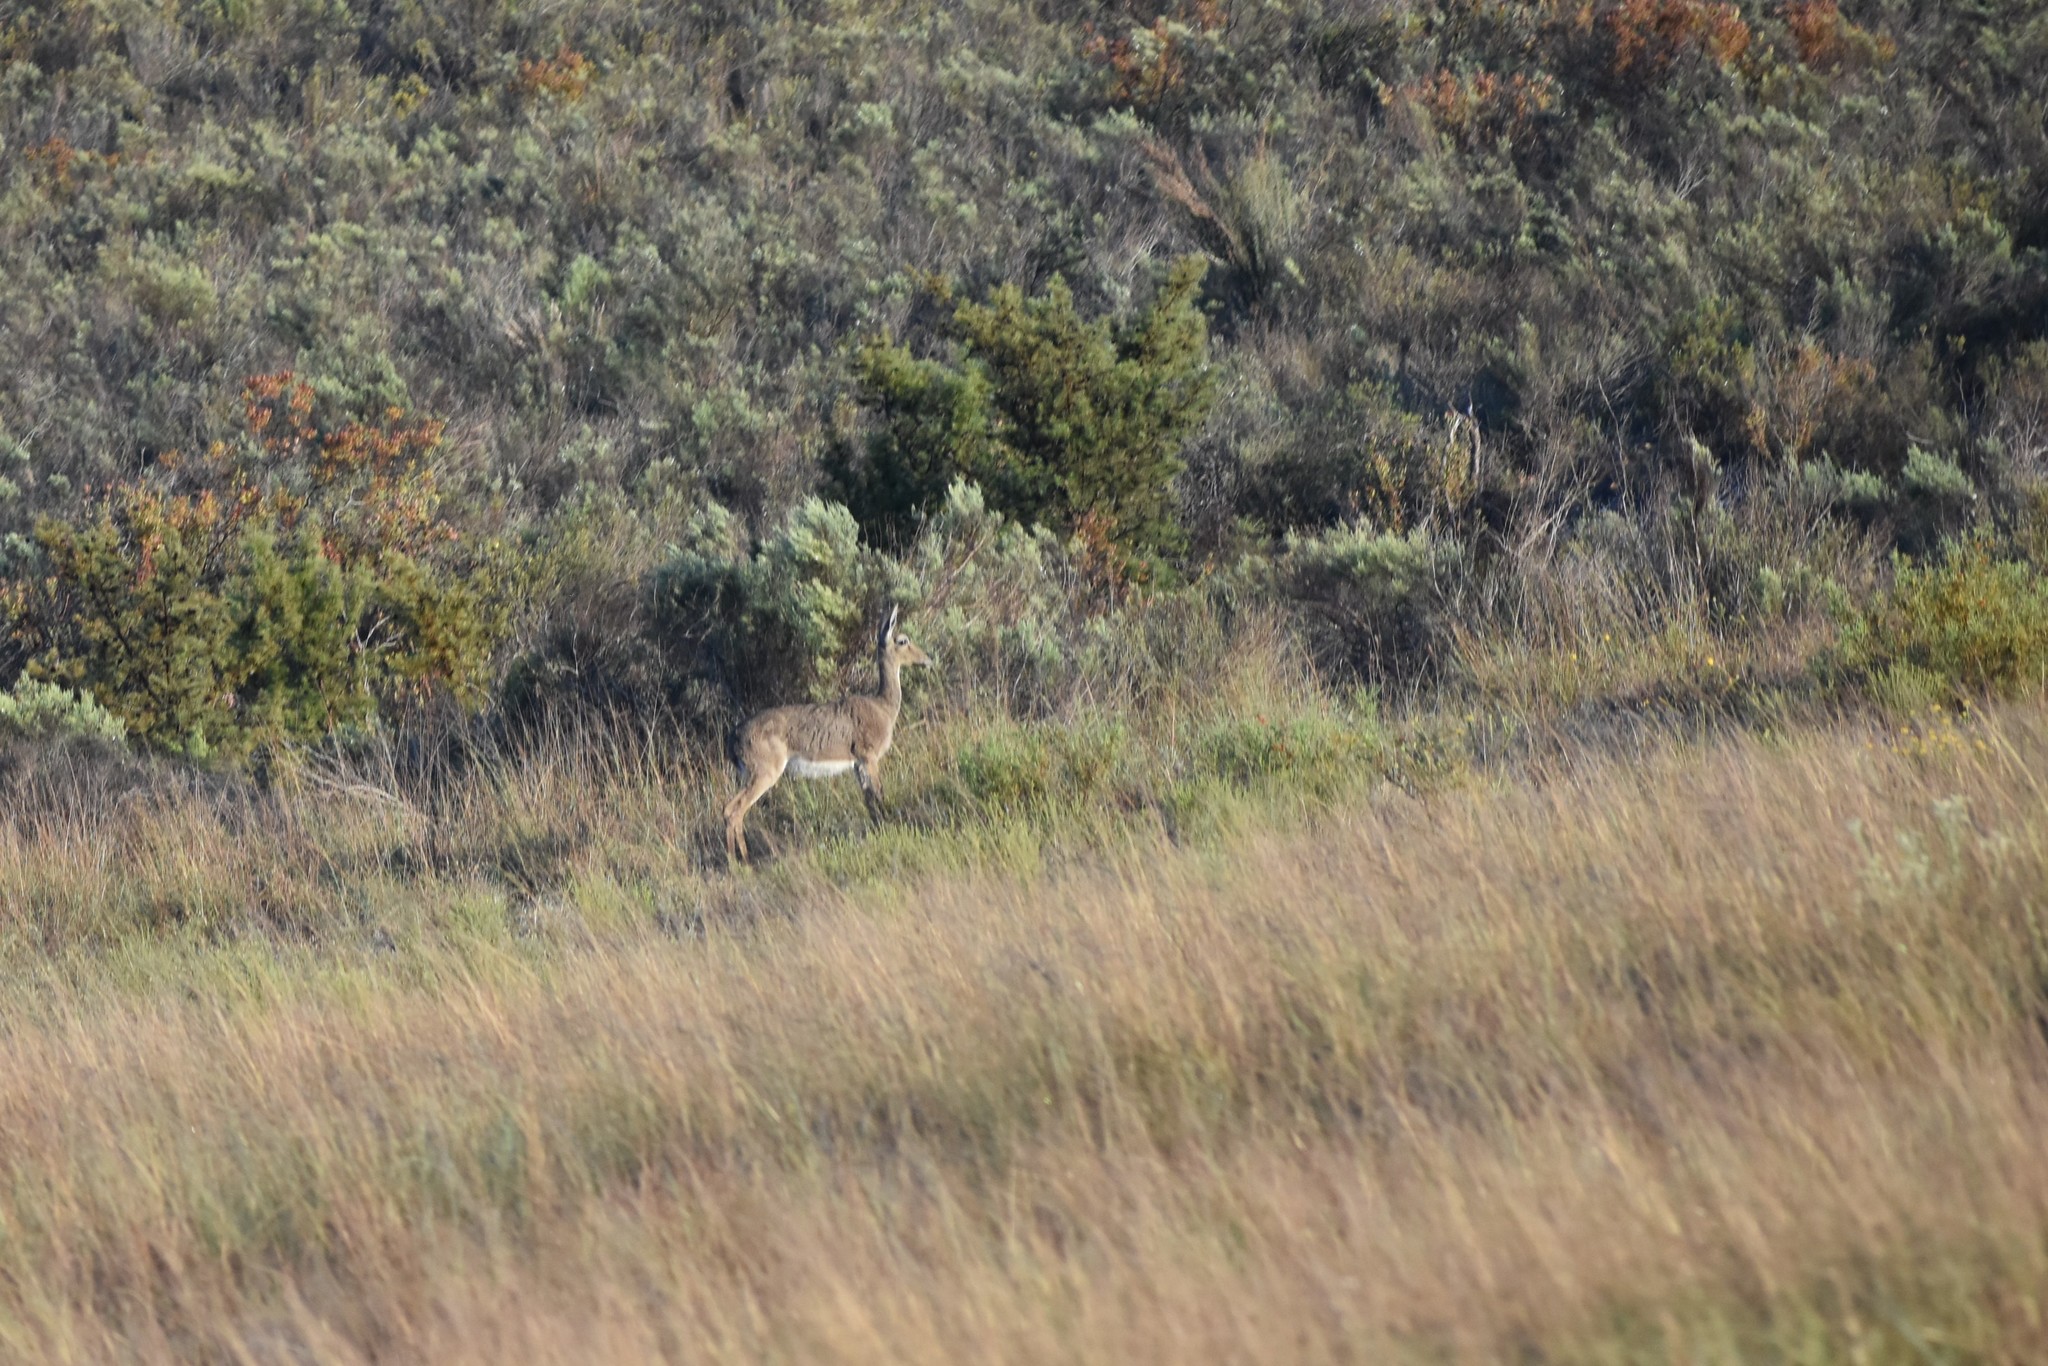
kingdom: Animalia
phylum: Chordata
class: Mammalia
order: Artiodactyla
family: Bovidae
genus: Pelea
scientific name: Pelea capreolus
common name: Common rhebok
